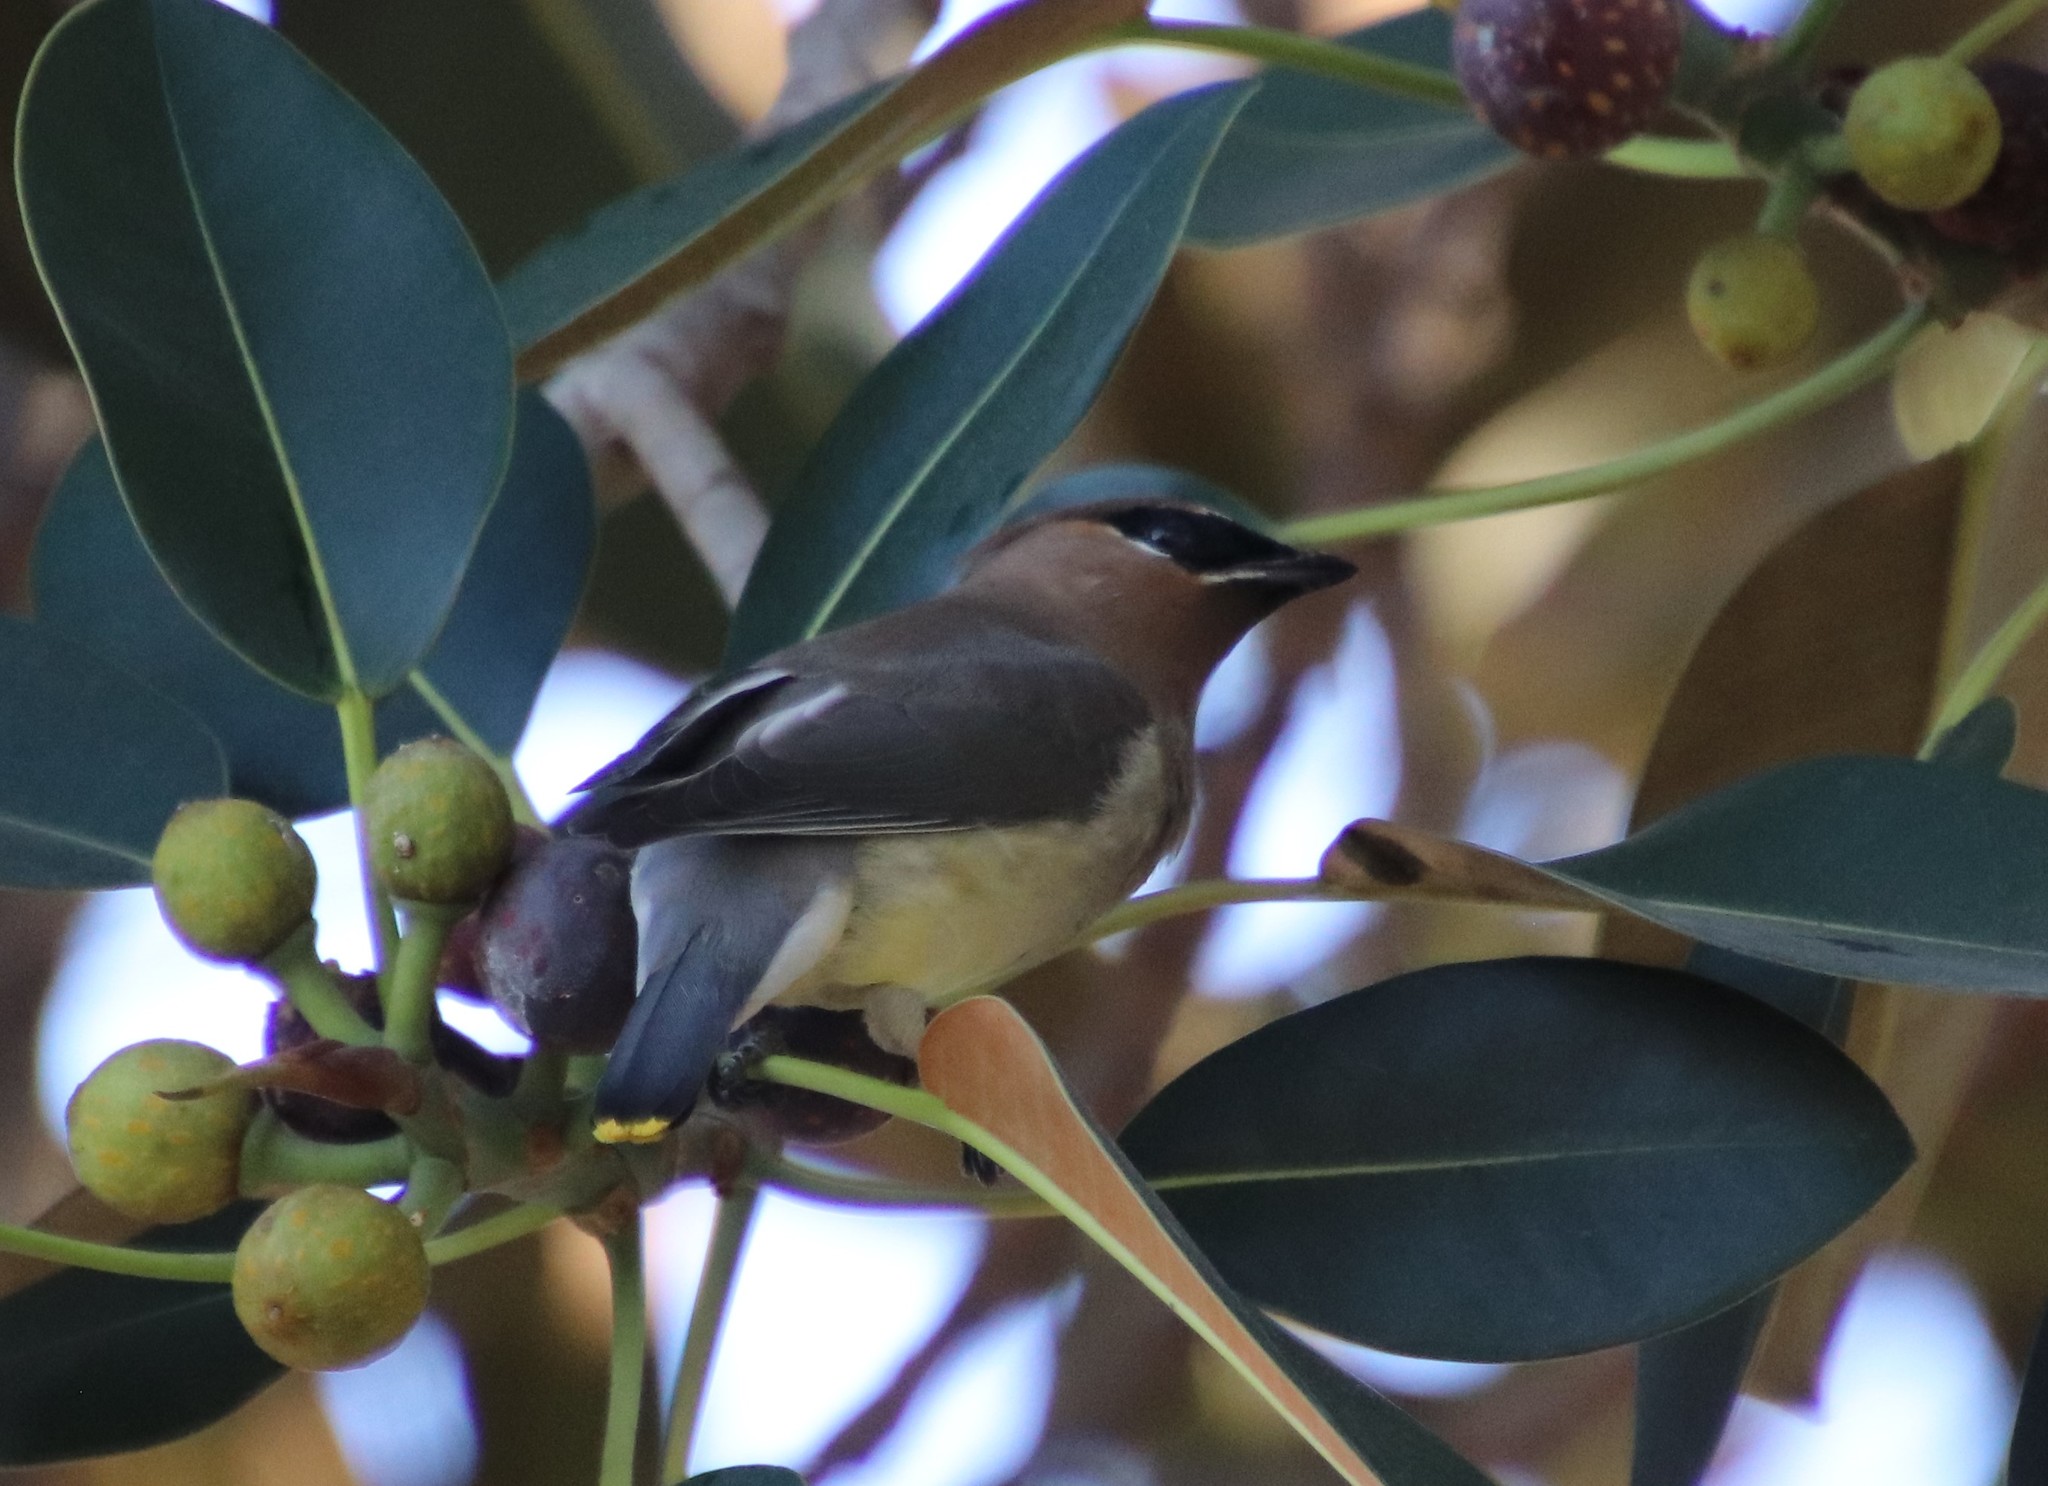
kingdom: Animalia
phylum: Chordata
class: Aves
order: Passeriformes
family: Bombycillidae
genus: Bombycilla
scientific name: Bombycilla cedrorum
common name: Cedar waxwing
